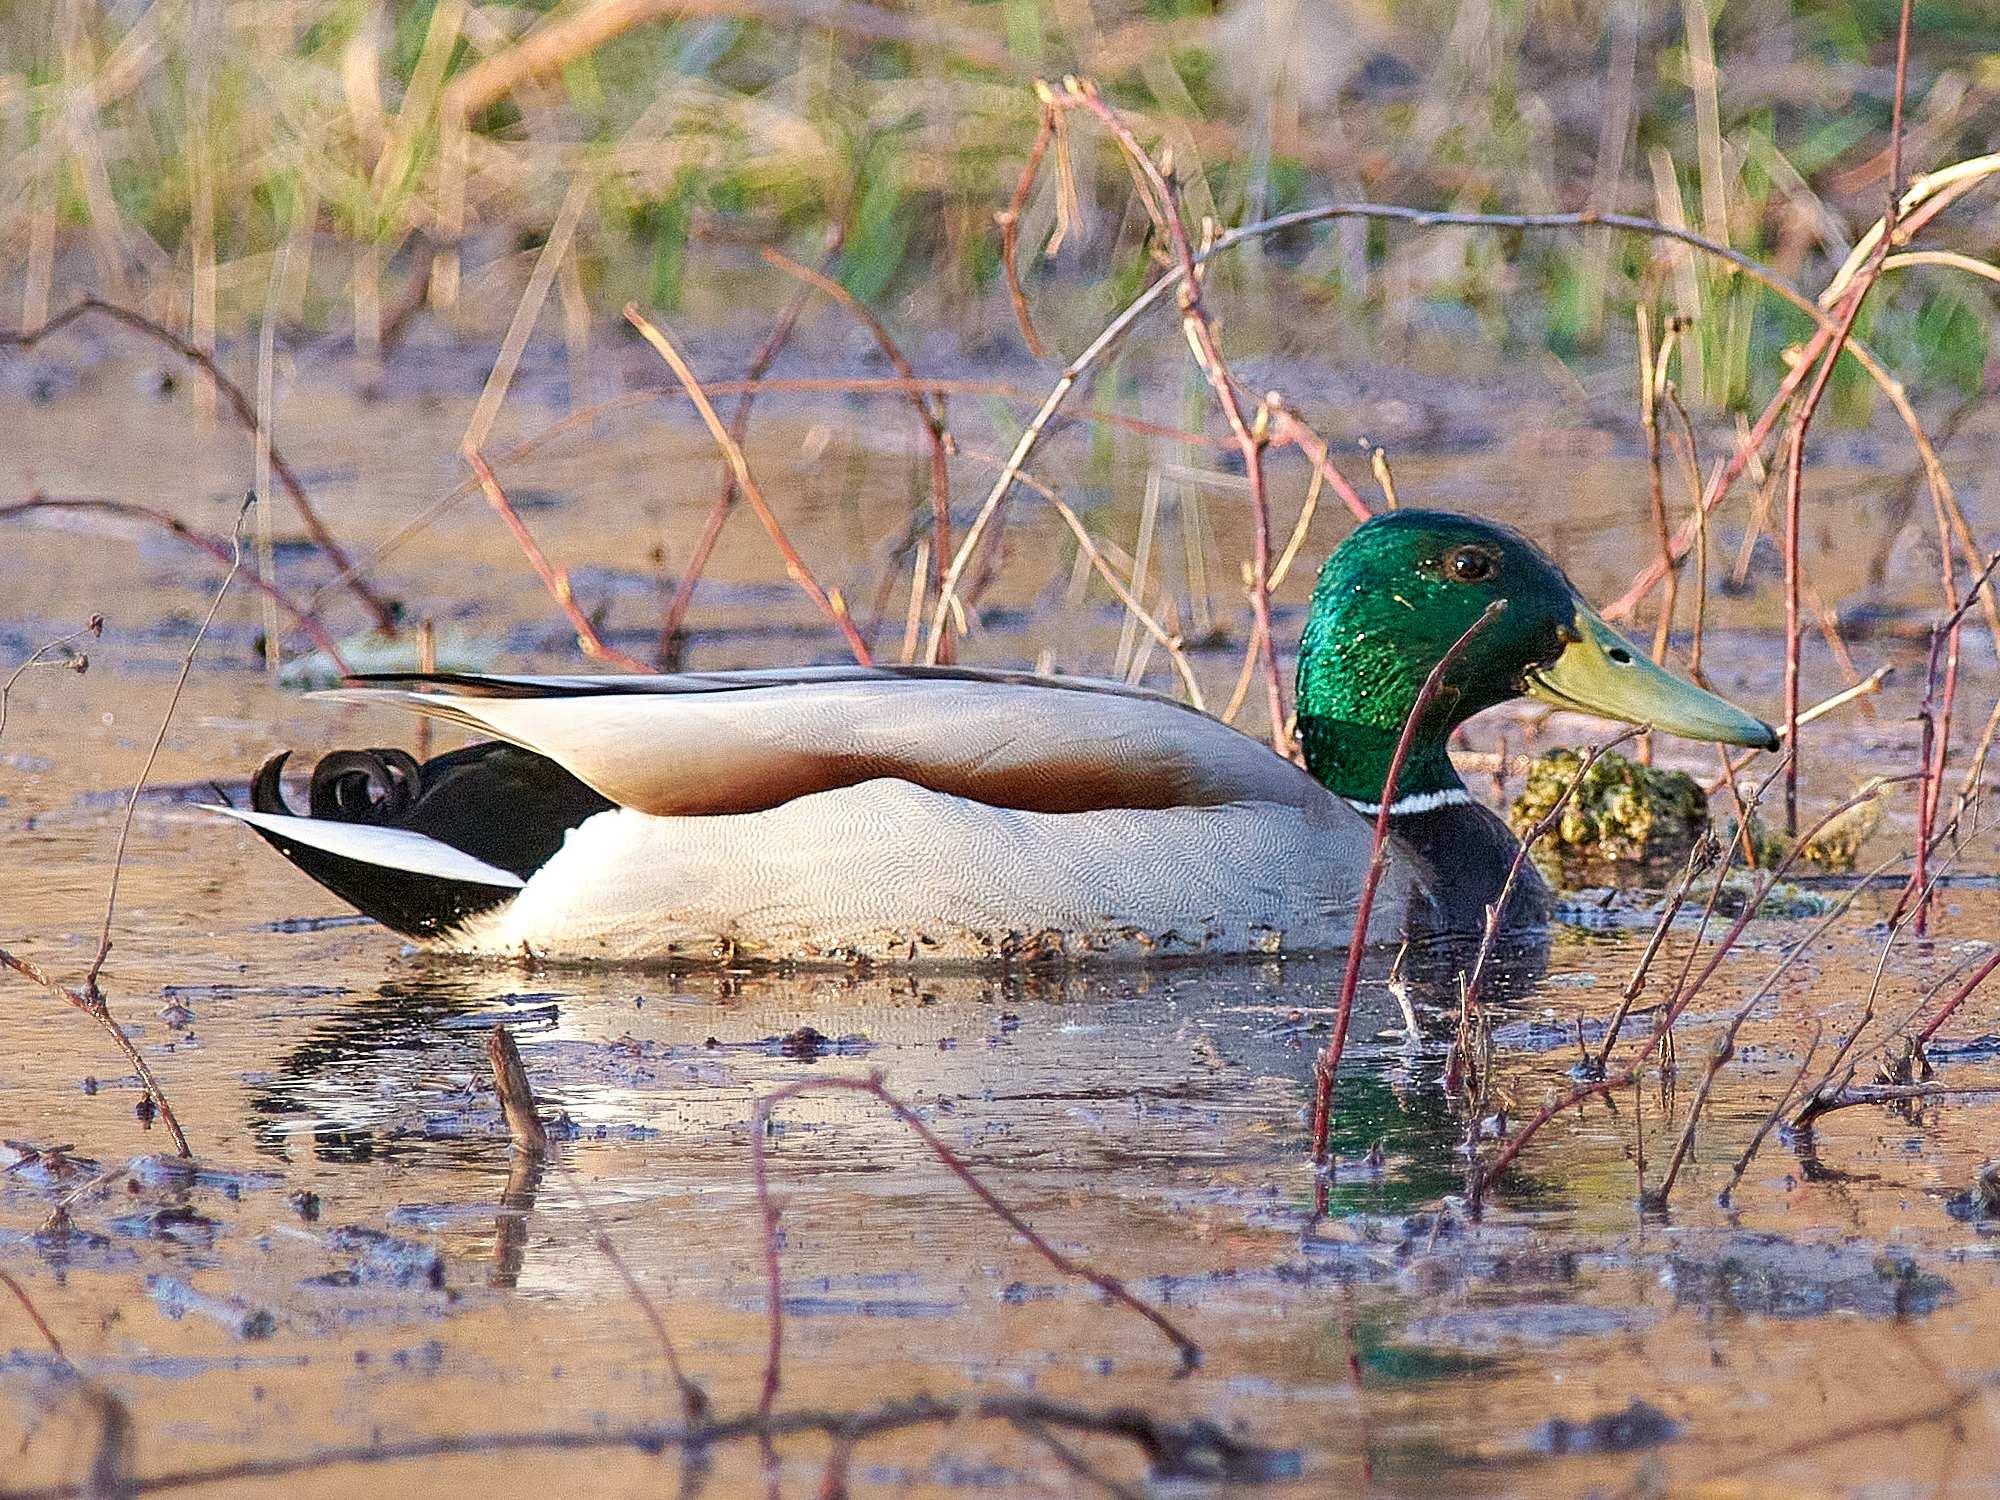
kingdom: Animalia
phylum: Chordata
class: Aves
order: Anseriformes
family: Anatidae
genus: Anas
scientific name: Anas platyrhynchos
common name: Mallard
